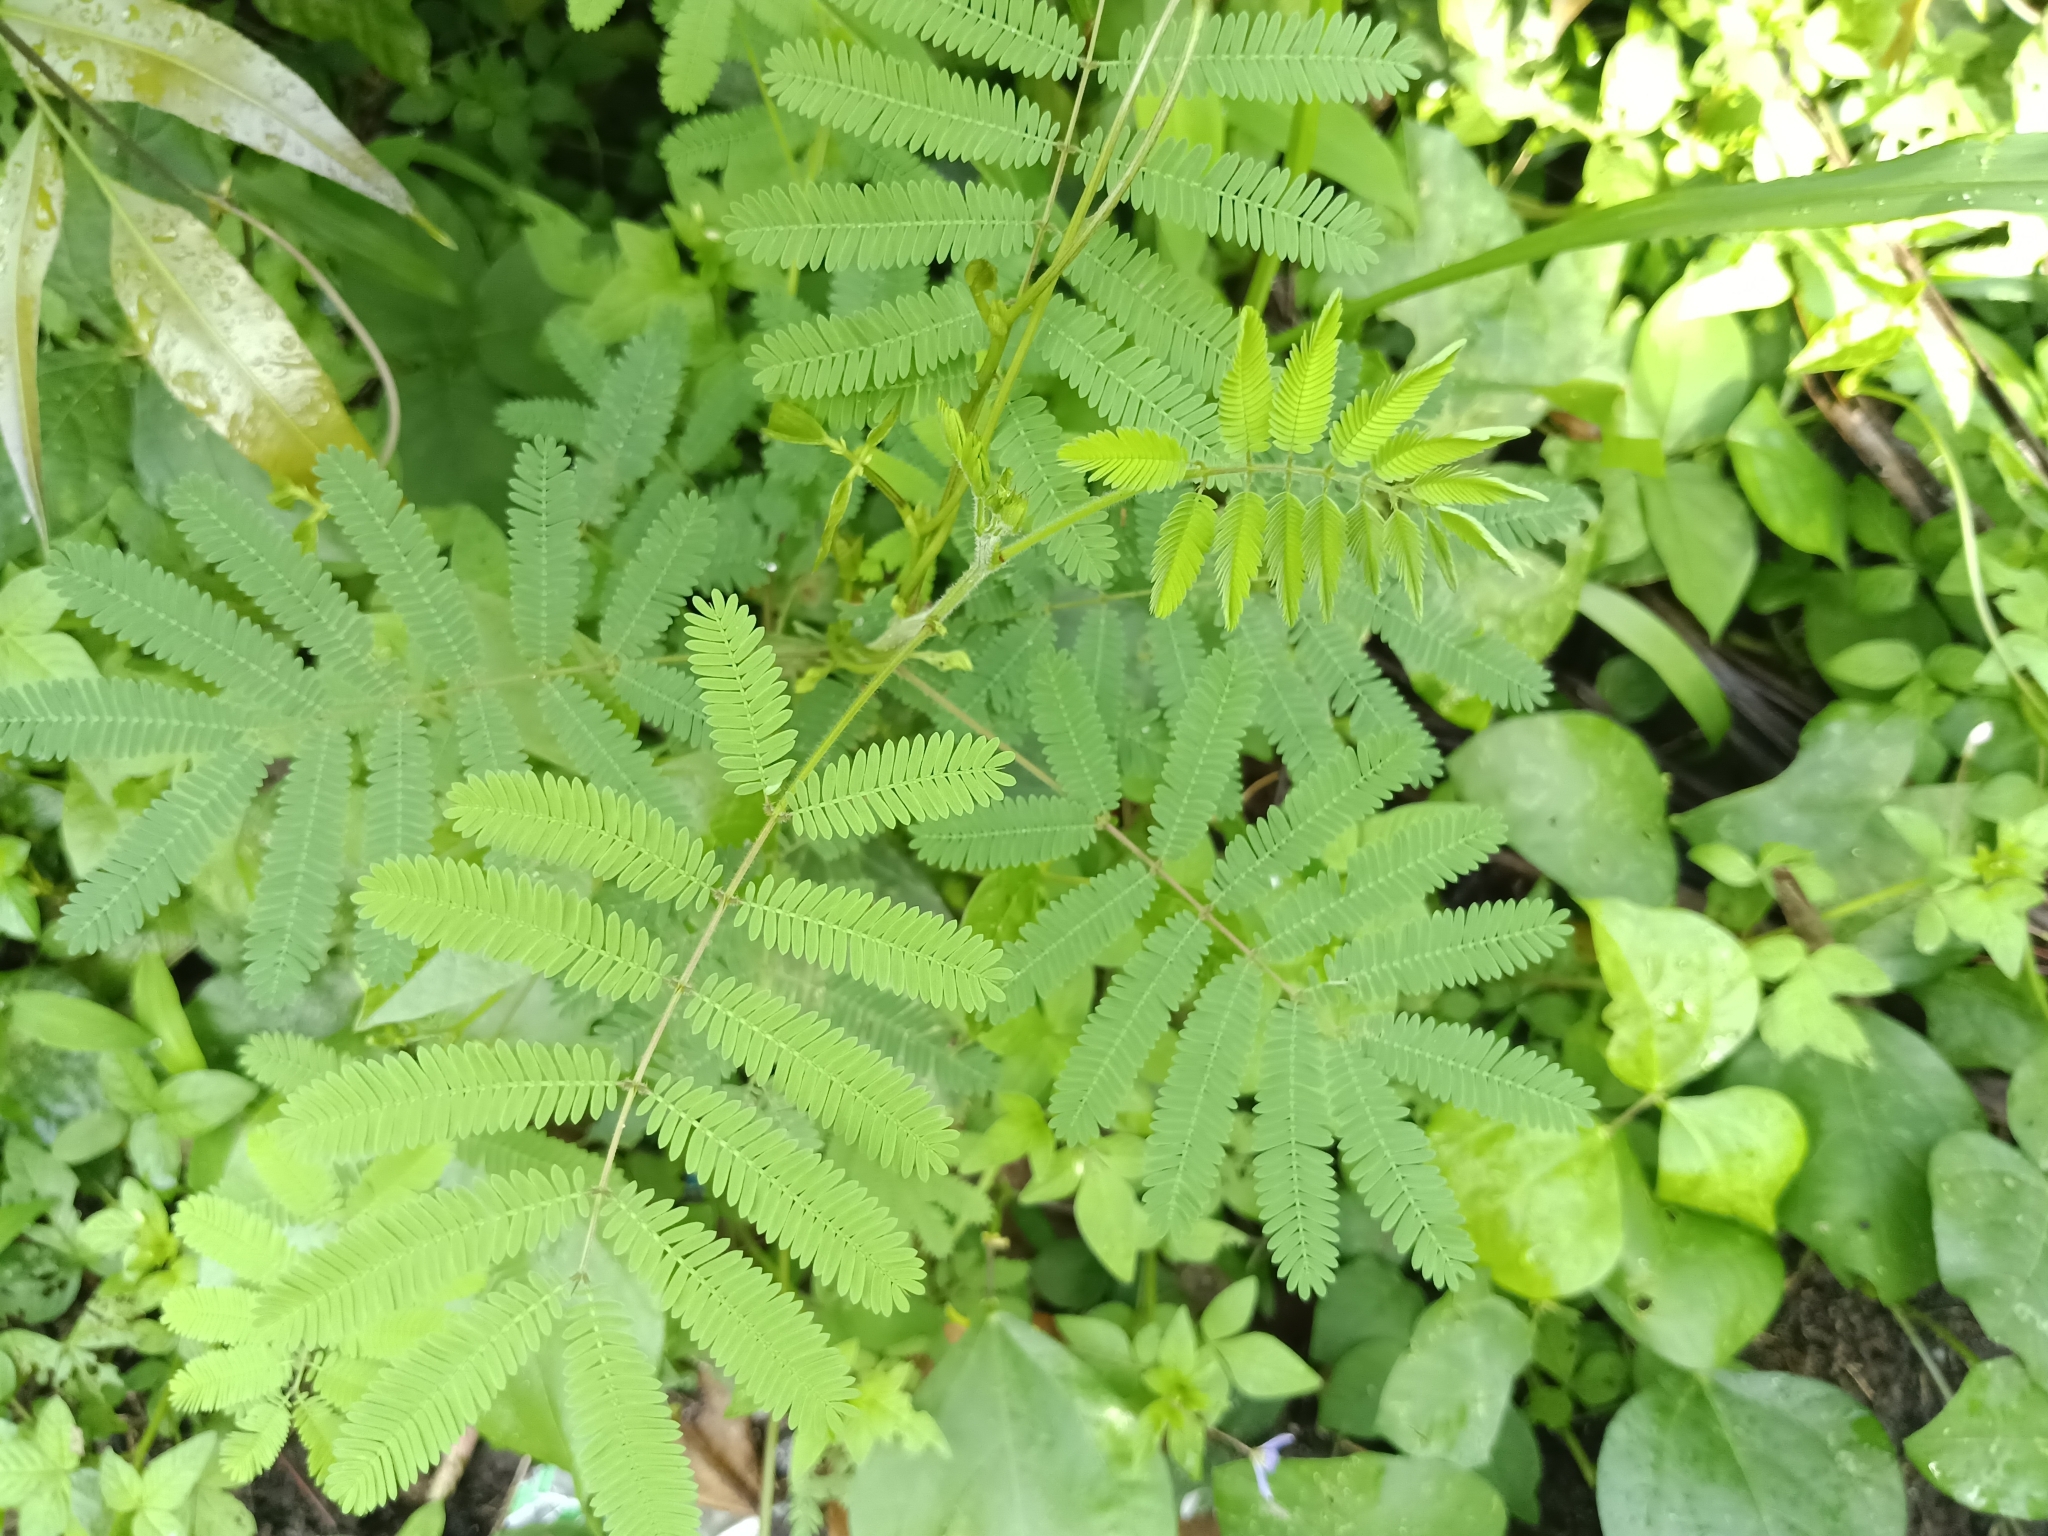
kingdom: Plantae
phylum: Tracheophyta
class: Magnoliopsida
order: Fabales
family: Fabaceae
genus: Mimosa
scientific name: Mimosa diplotricha
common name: Giant sensitive-plant
